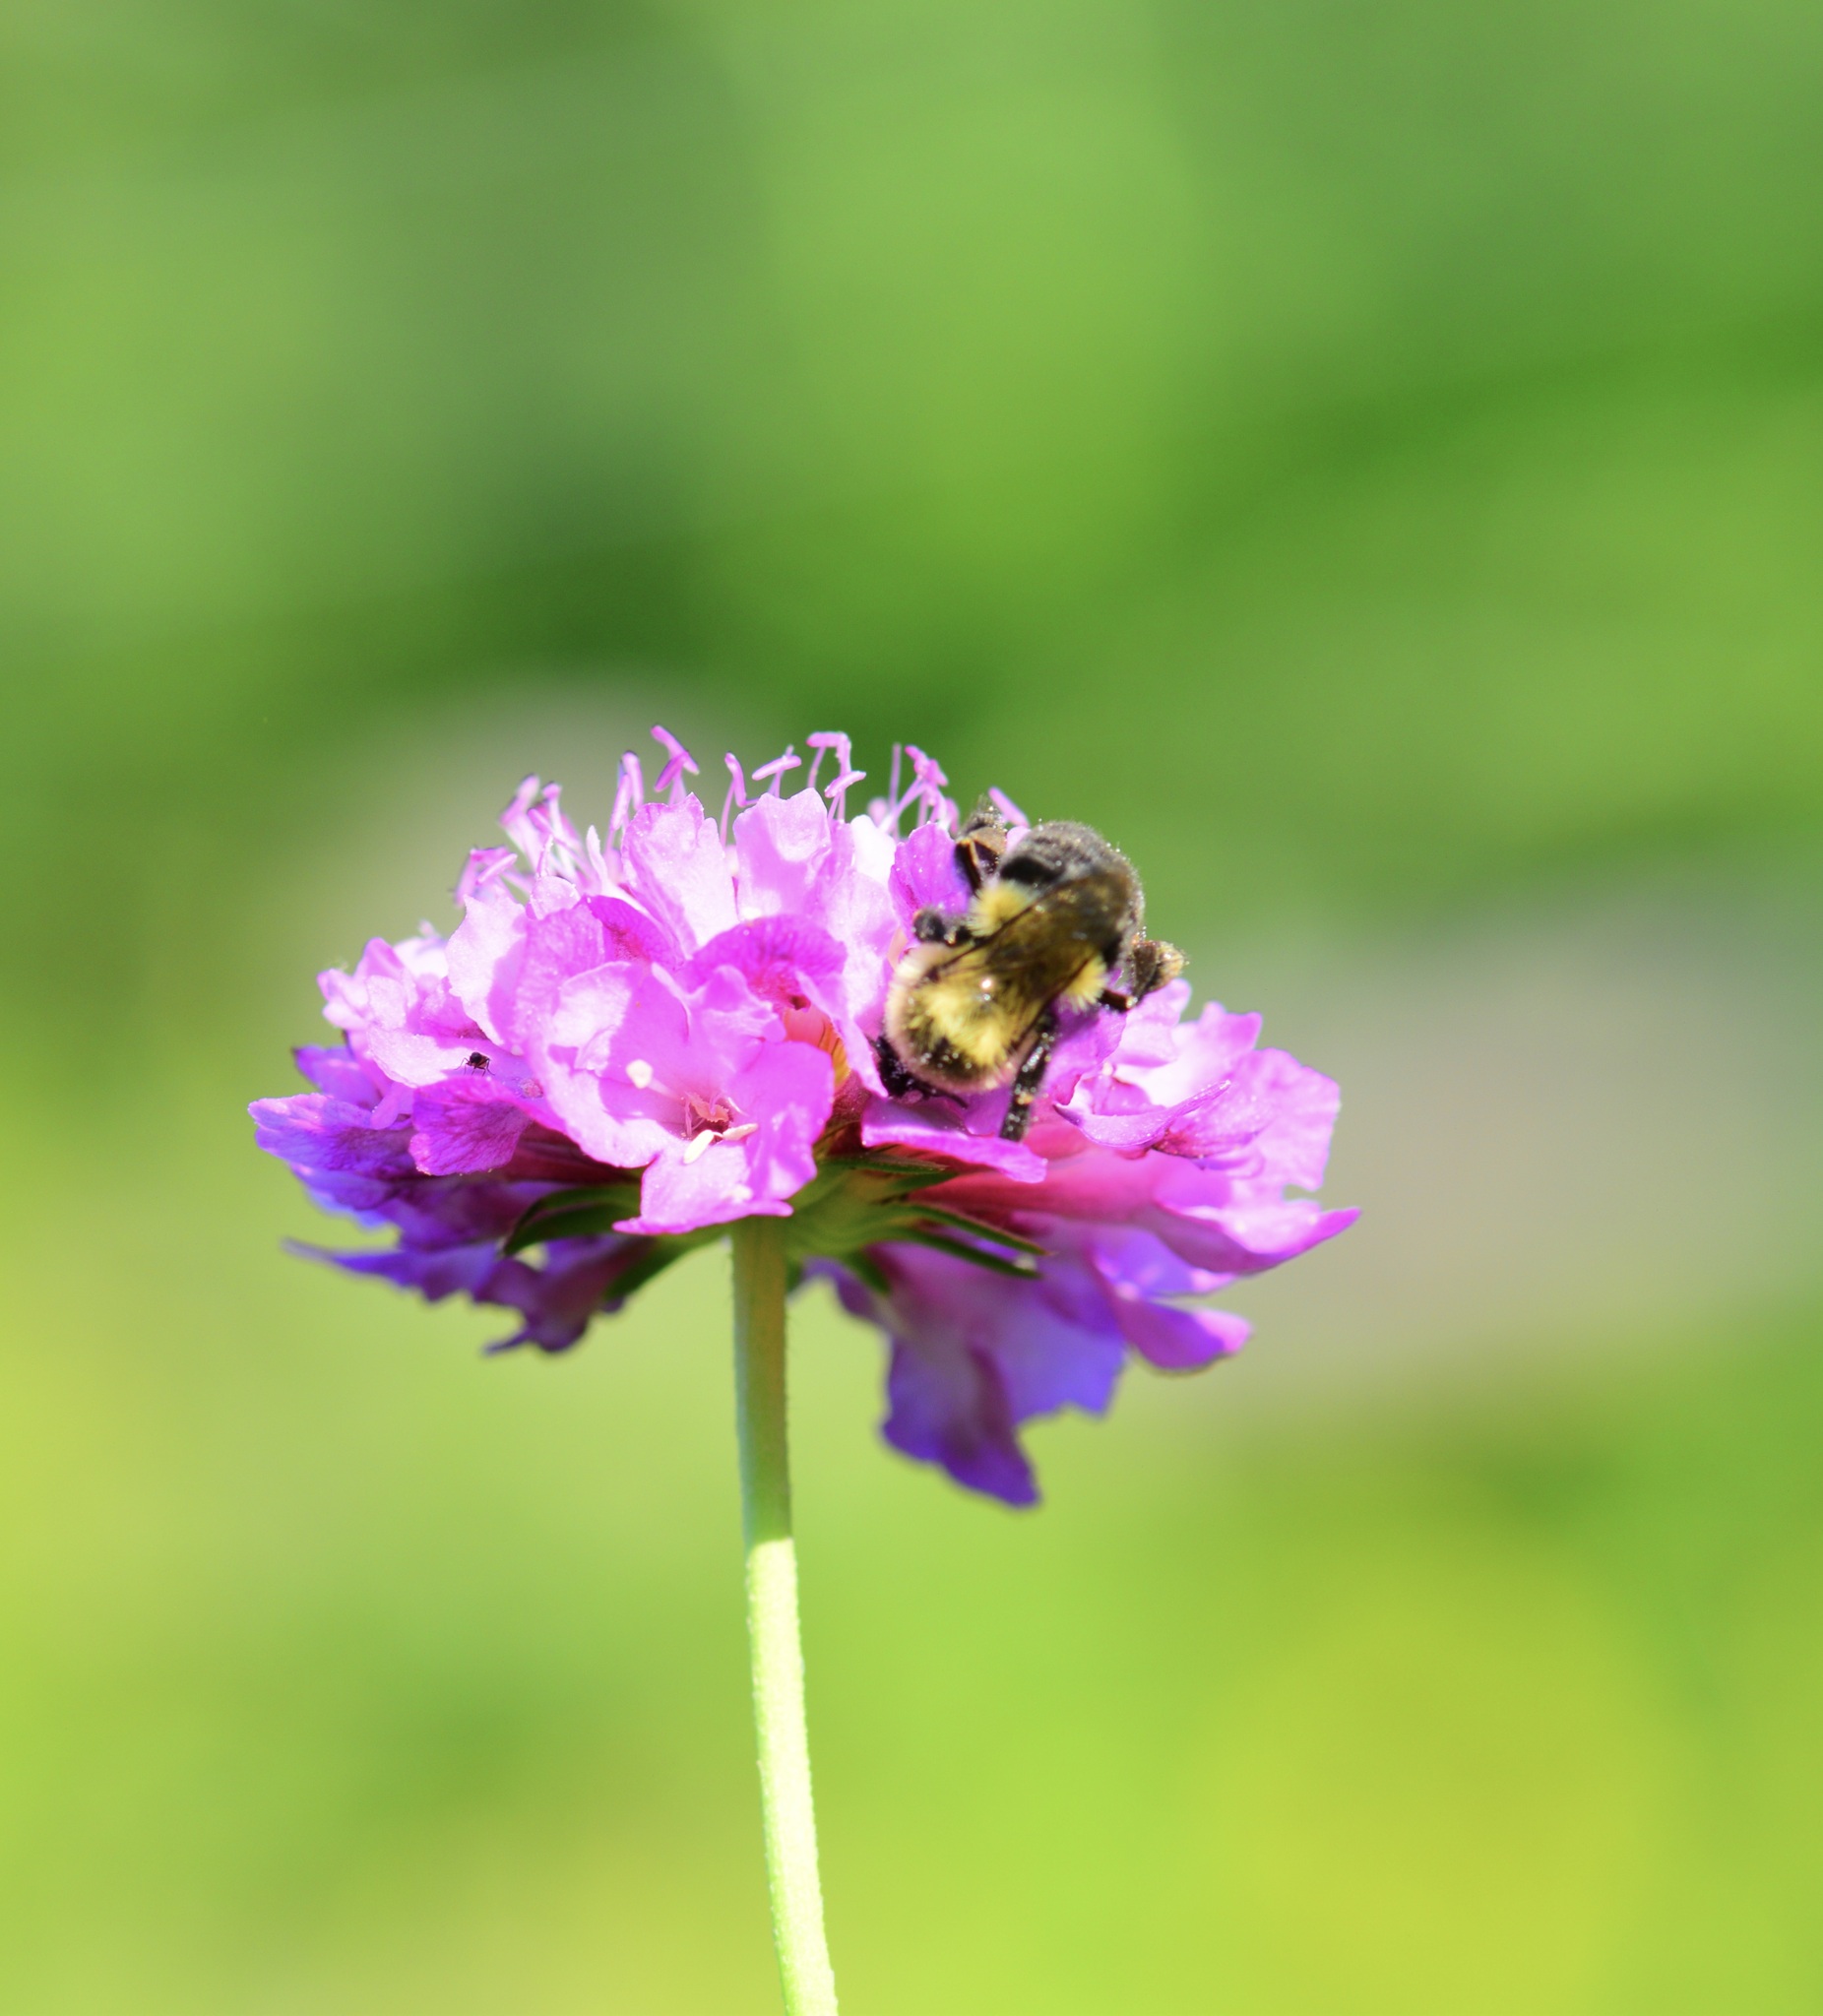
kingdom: Animalia
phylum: Arthropoda
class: Insecta
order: Hymenoptera
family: Apidae
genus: Bombus
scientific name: Bombus impatiens
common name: Common eastern bumble bee
